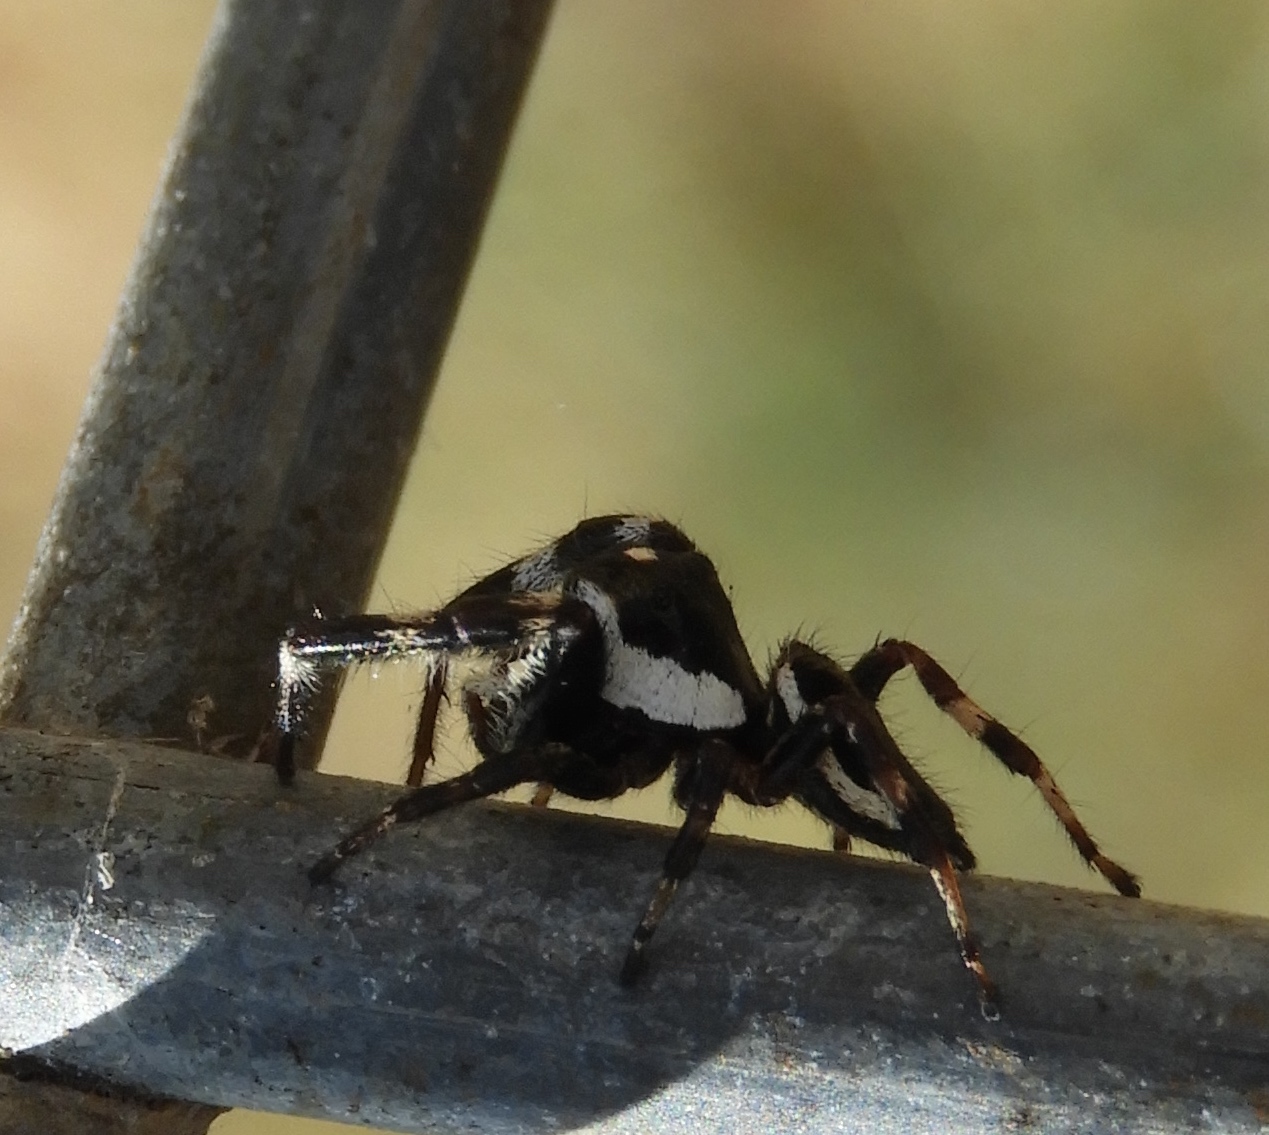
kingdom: Animalia
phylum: Arthropoda
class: Arachnida
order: Araneae
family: Salticidae
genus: Dendryphantes
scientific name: Dendryphantes zygoballoides
